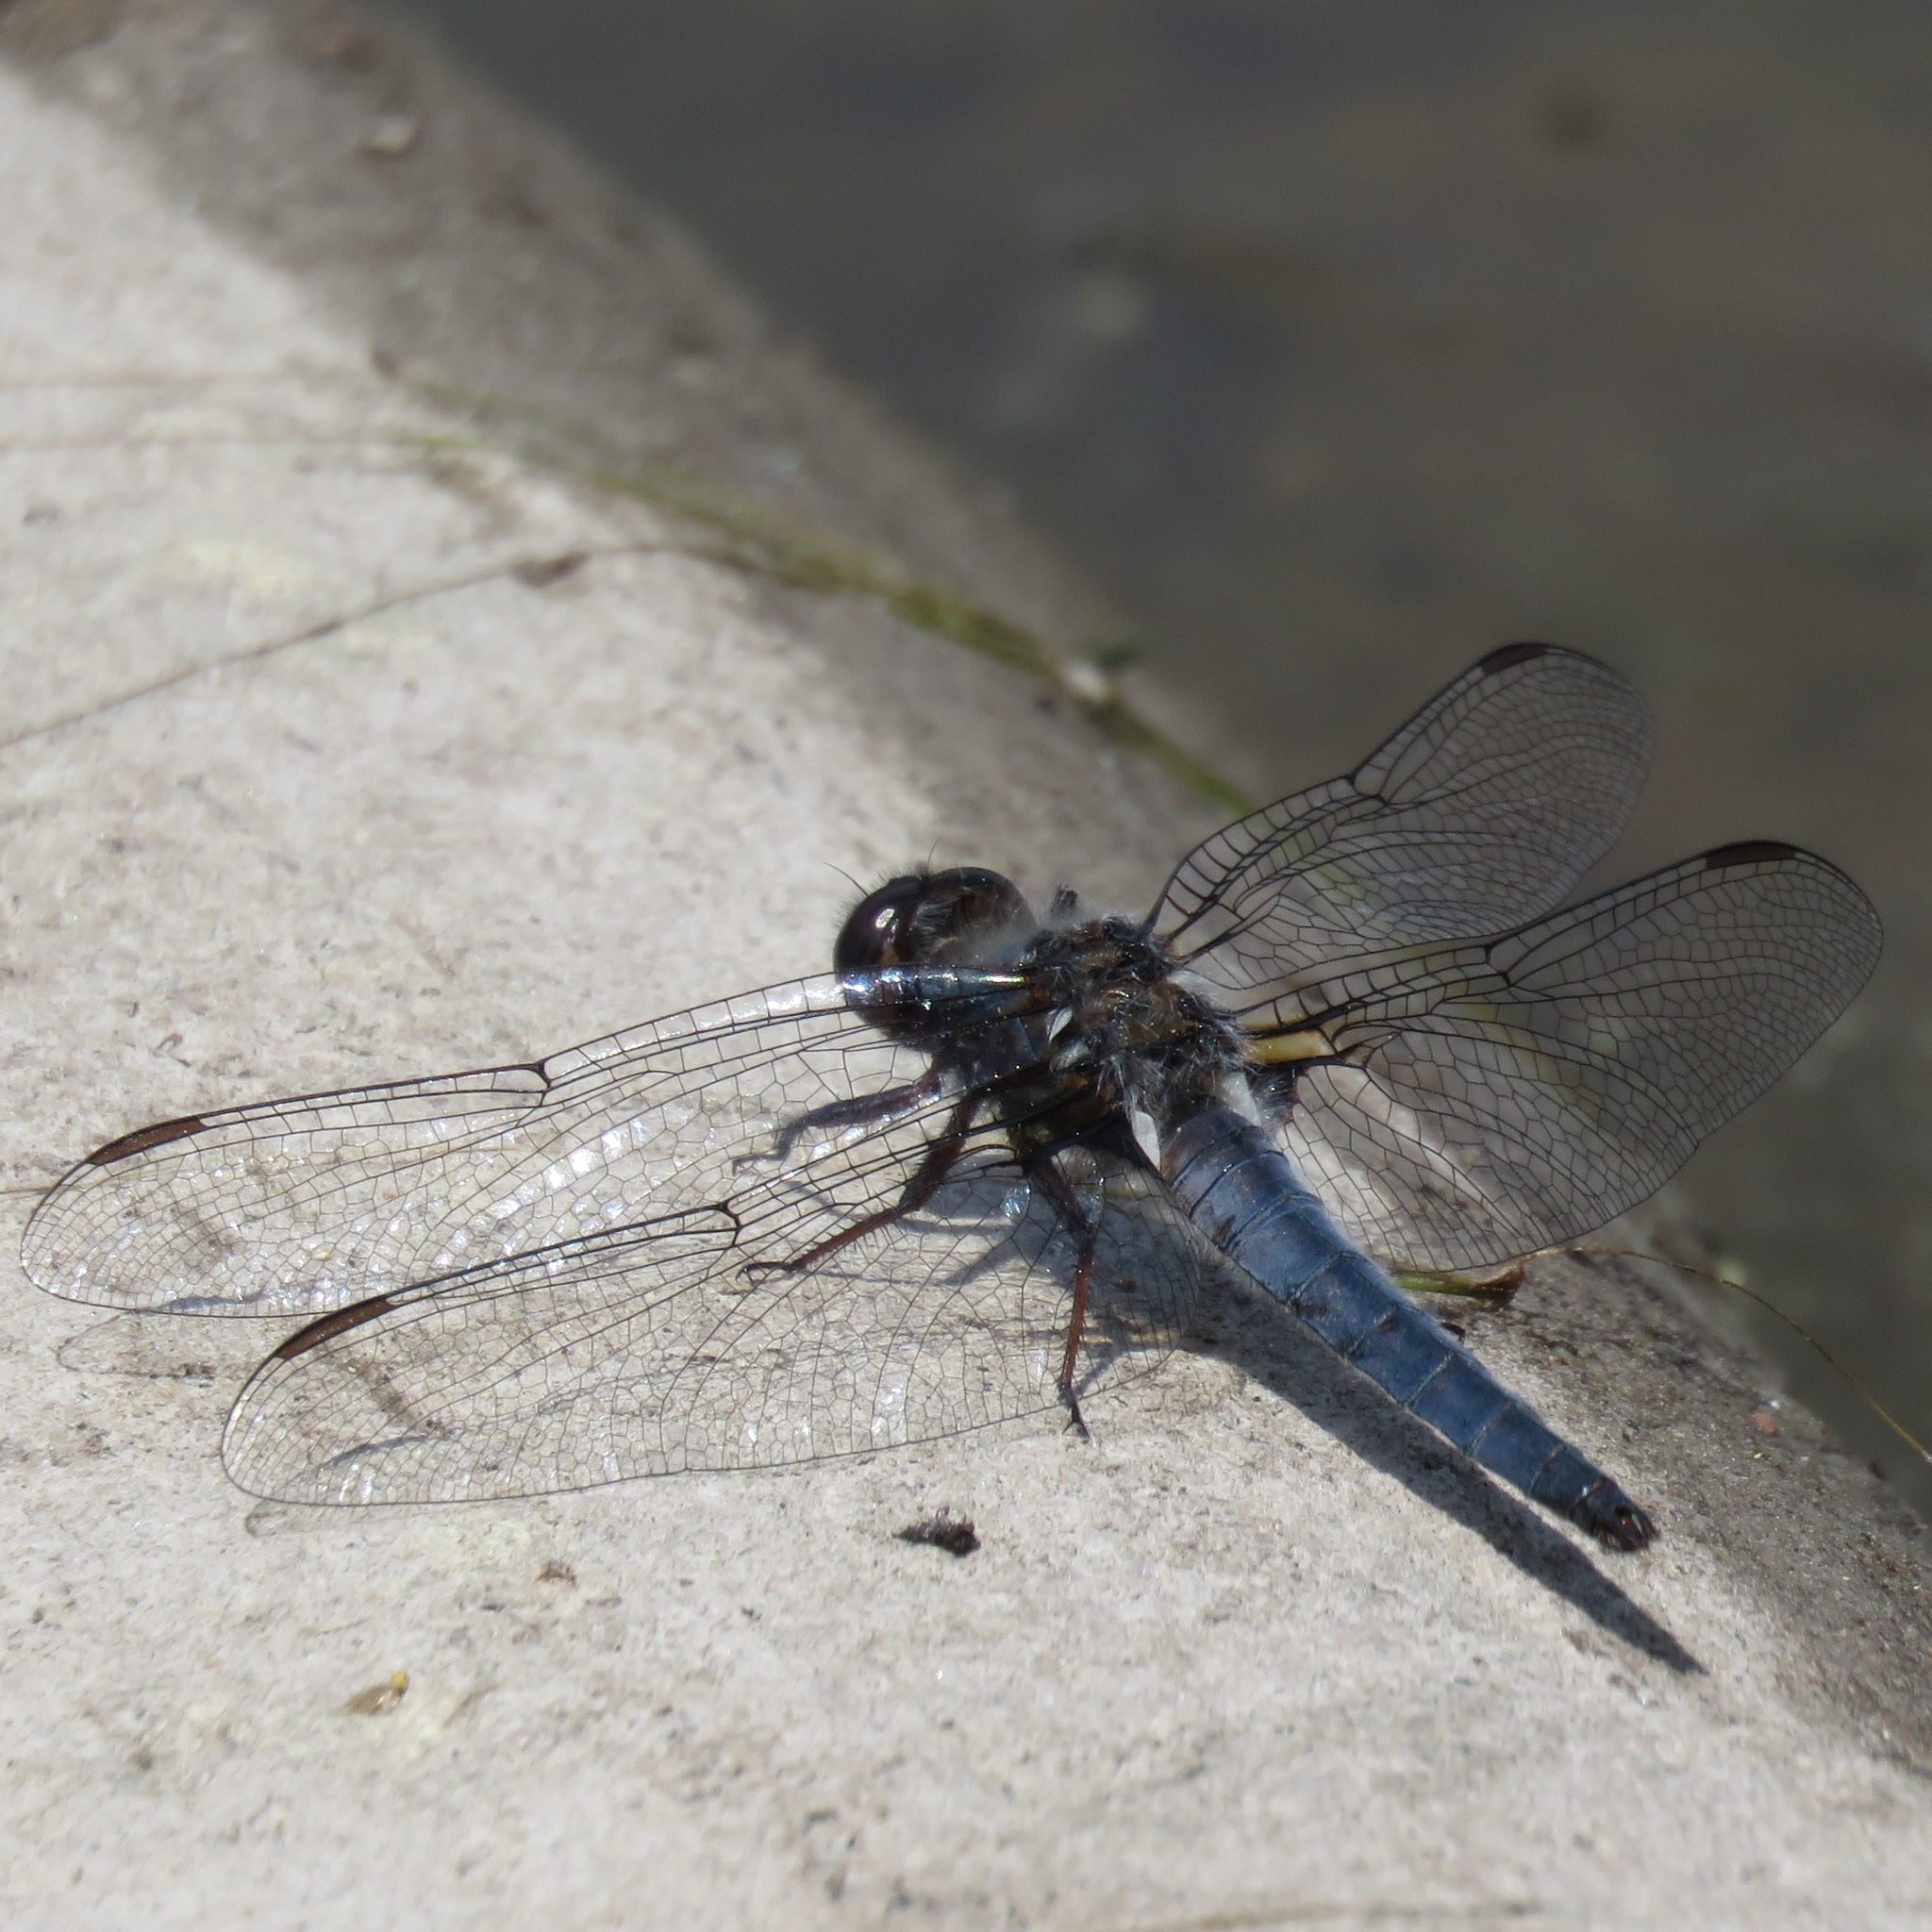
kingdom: Animalia
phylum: Arthropoda
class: Insecta
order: Odonata
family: Libellulidae
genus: Ladona
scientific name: Ladona deplanata
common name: Blue corporal
